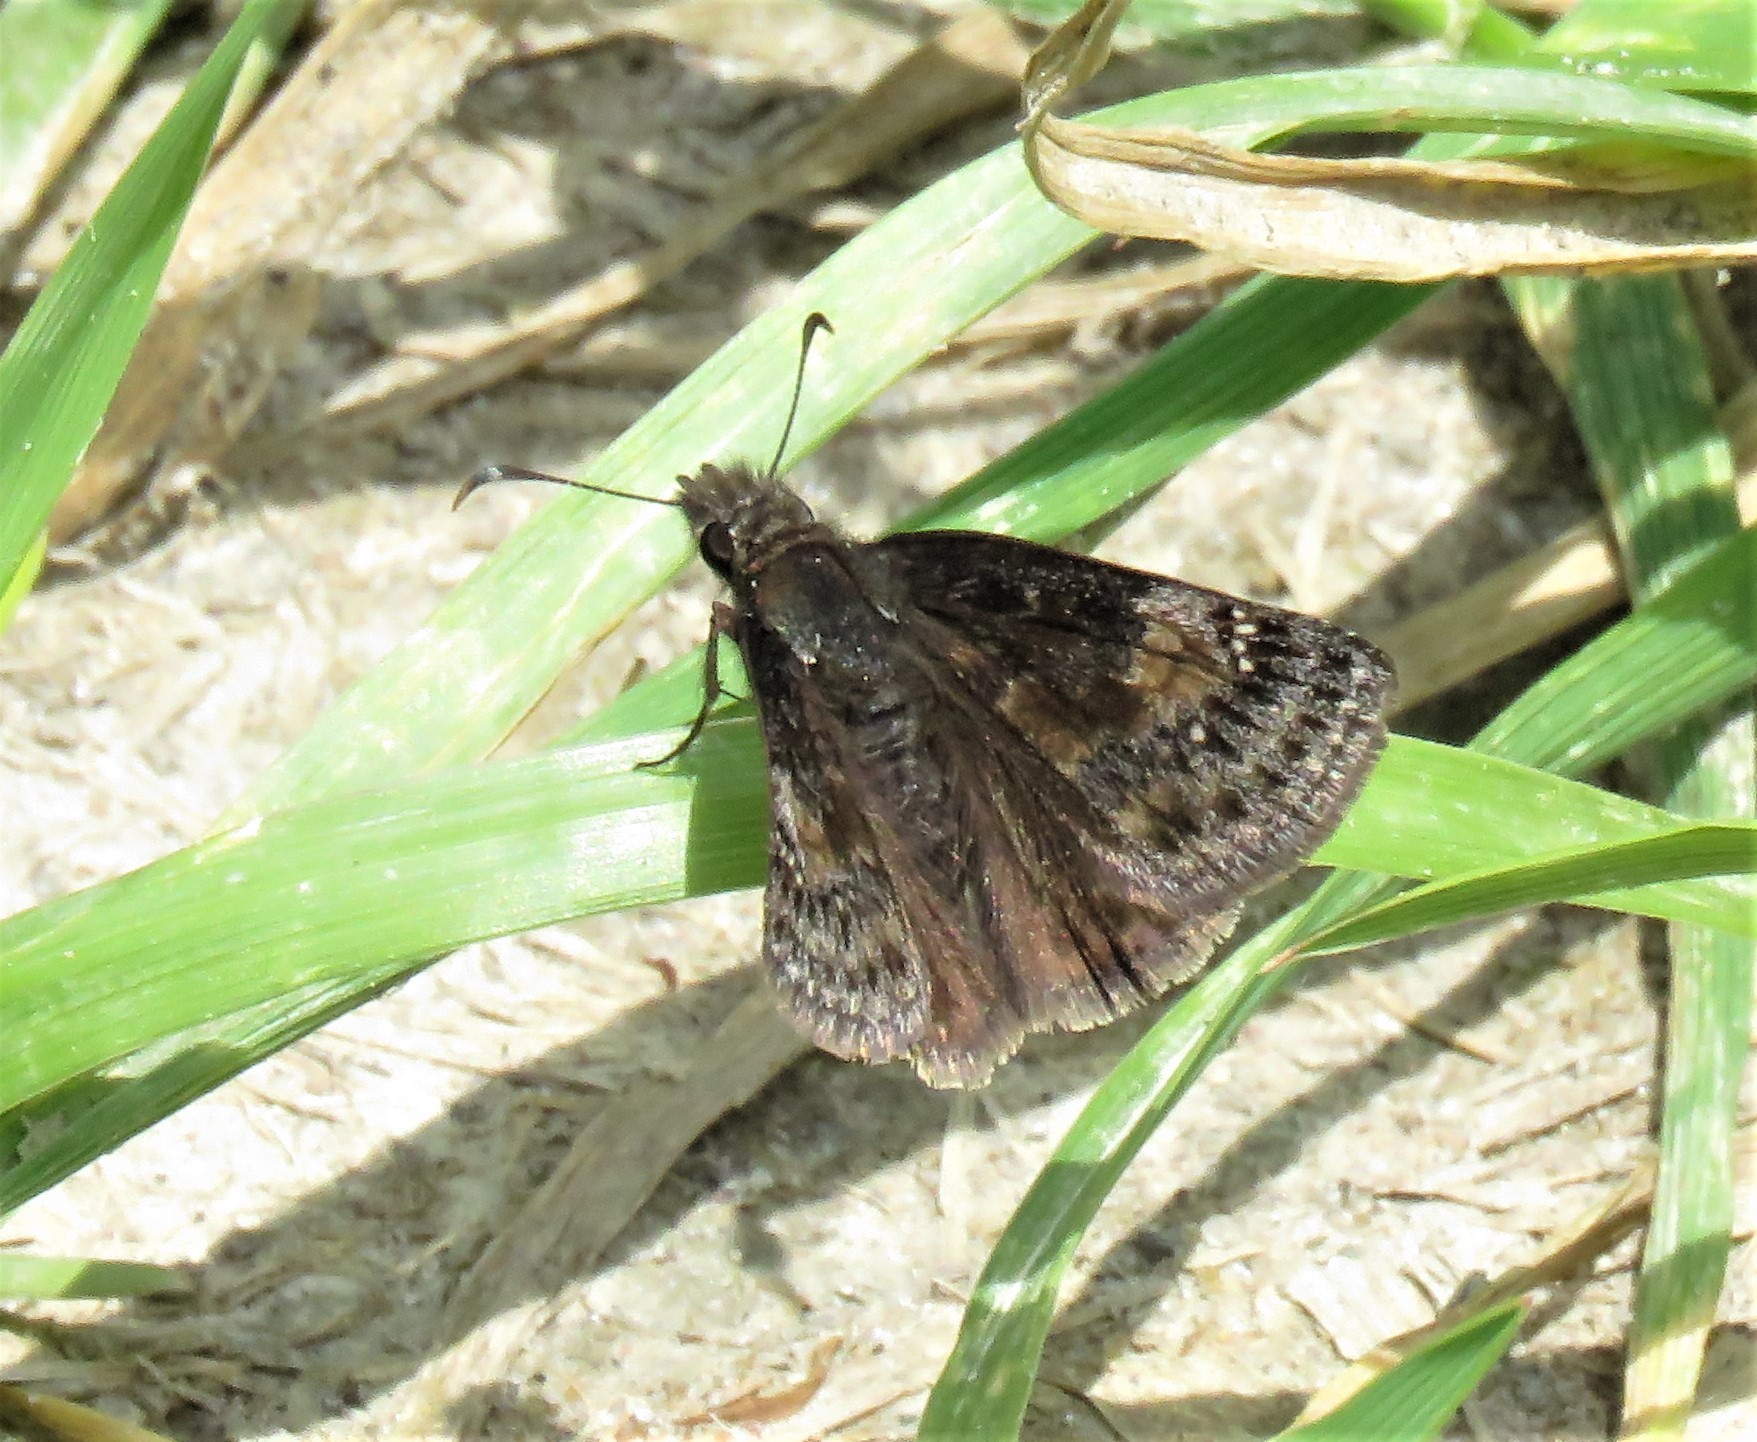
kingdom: Animalia
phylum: Arthropoda
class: Insecta
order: Lepidoptera
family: Hesperiidae
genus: Erynnis
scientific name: Erynnis baptisiae
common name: Wild indigo duskywing
